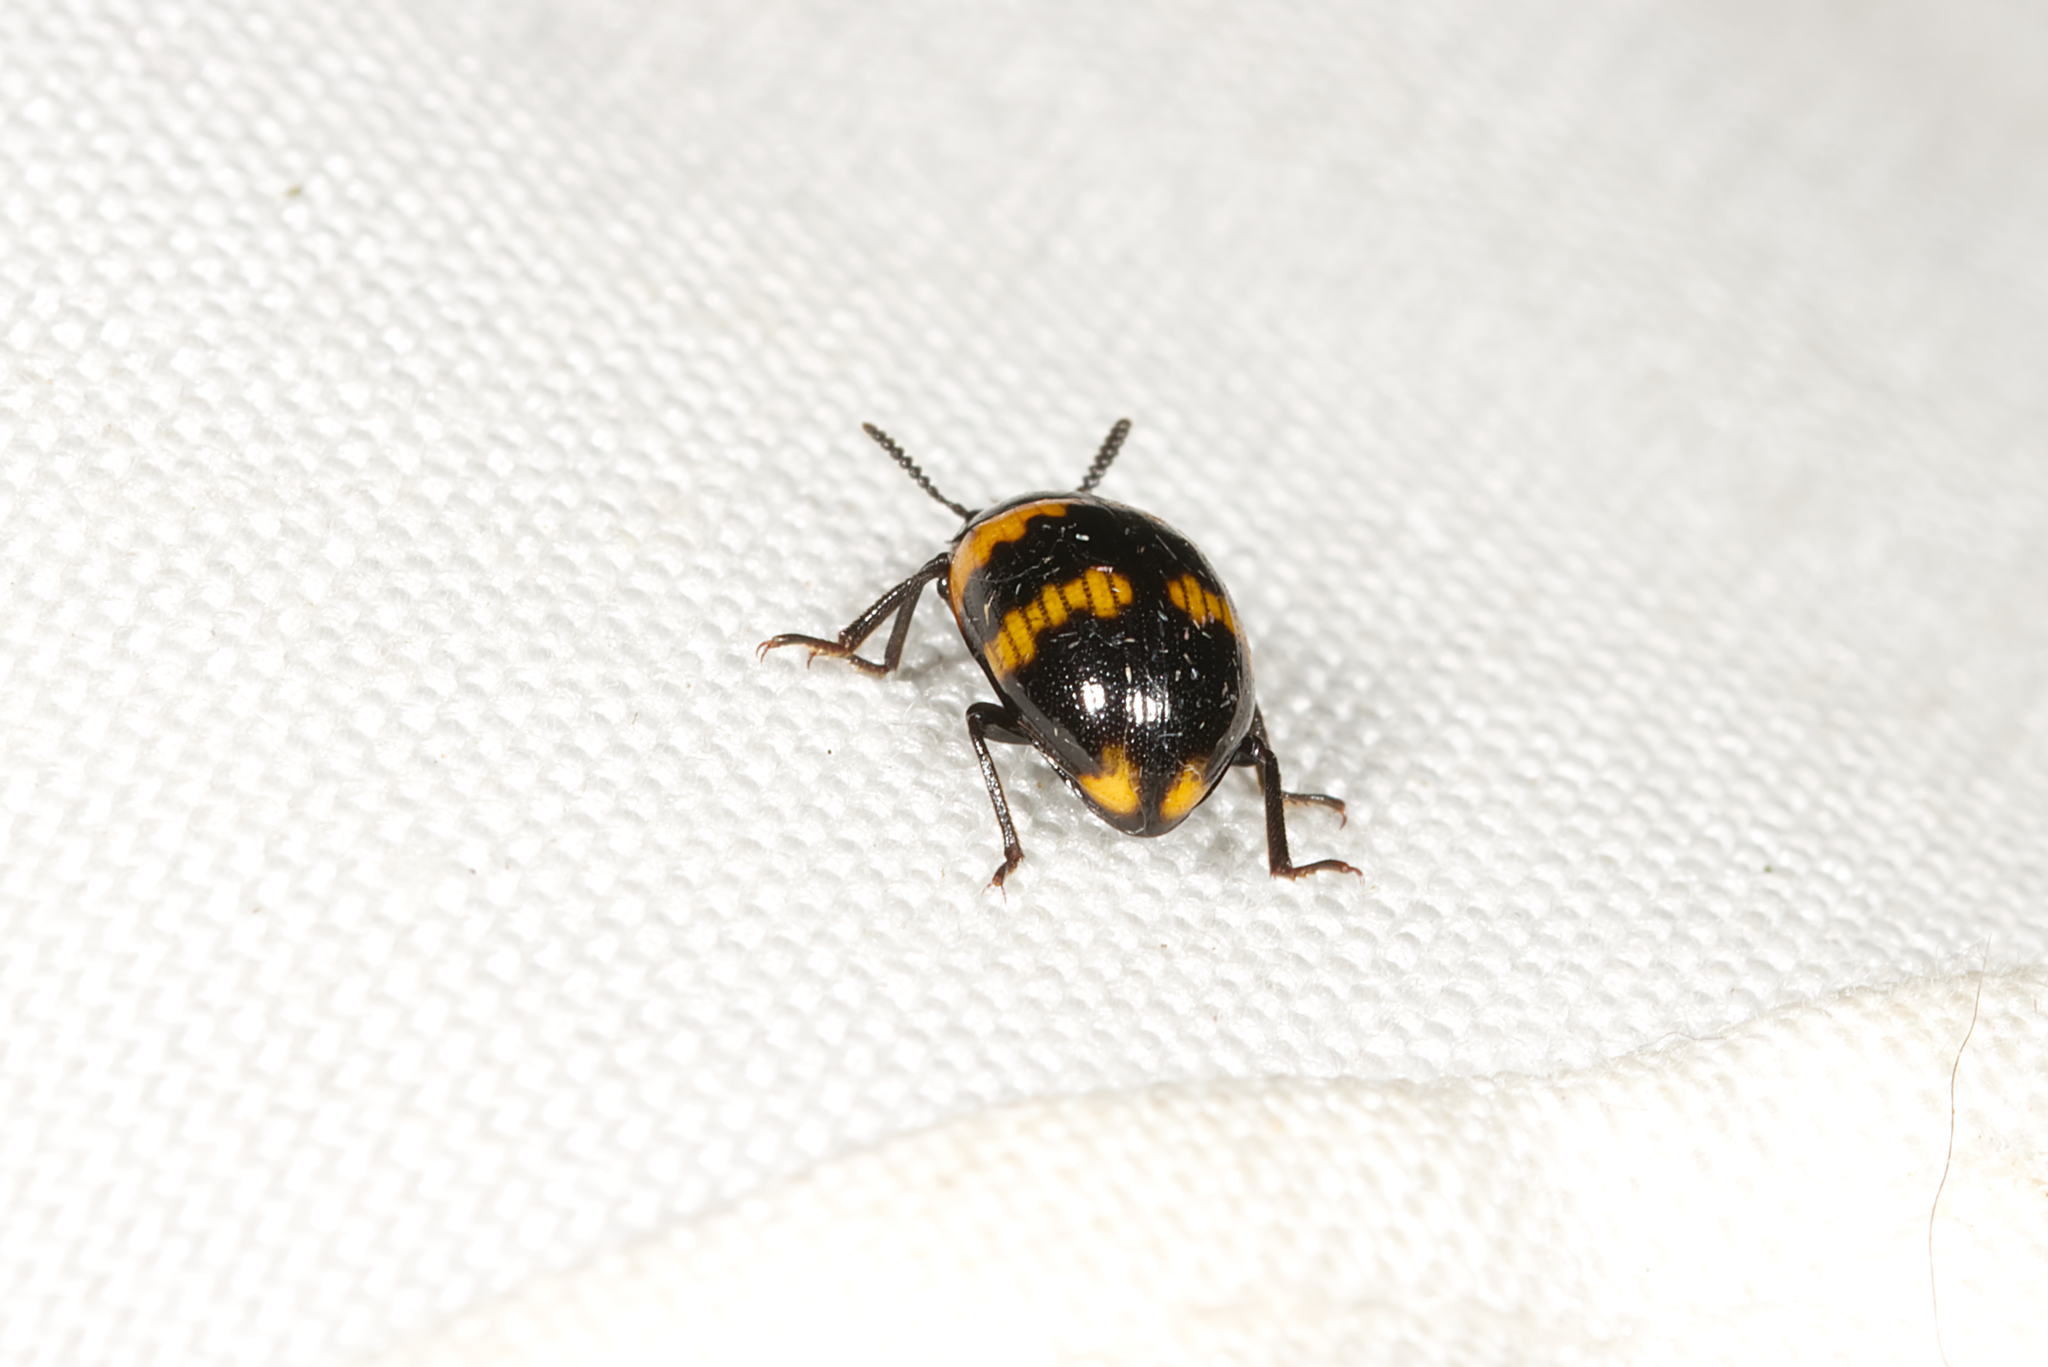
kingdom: Animalia
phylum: Arthropoda
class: Insecta
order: Coleoptera
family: Tenebrionidae
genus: Diaperis
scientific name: Diaperis boleti
